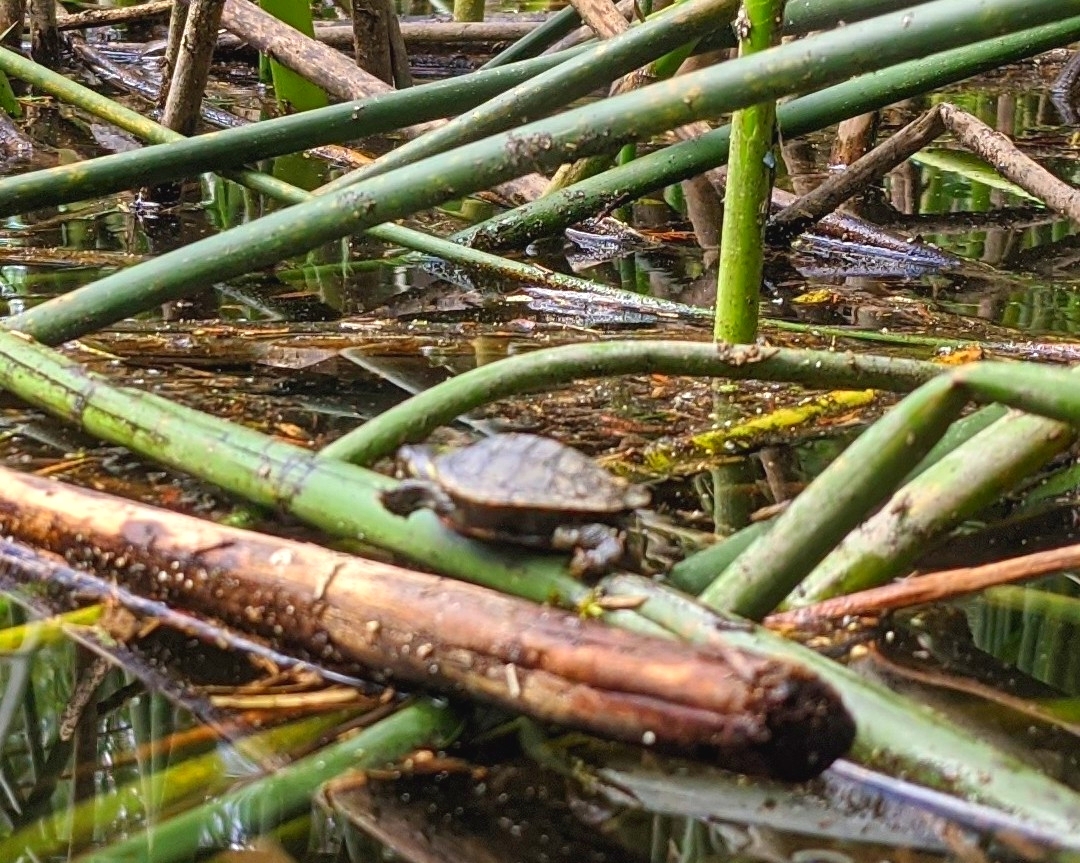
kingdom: Animalia
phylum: Chordata
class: Testudines
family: Emydidae
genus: Chrysemys
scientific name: Chrysemys picta
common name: Painted turtle
